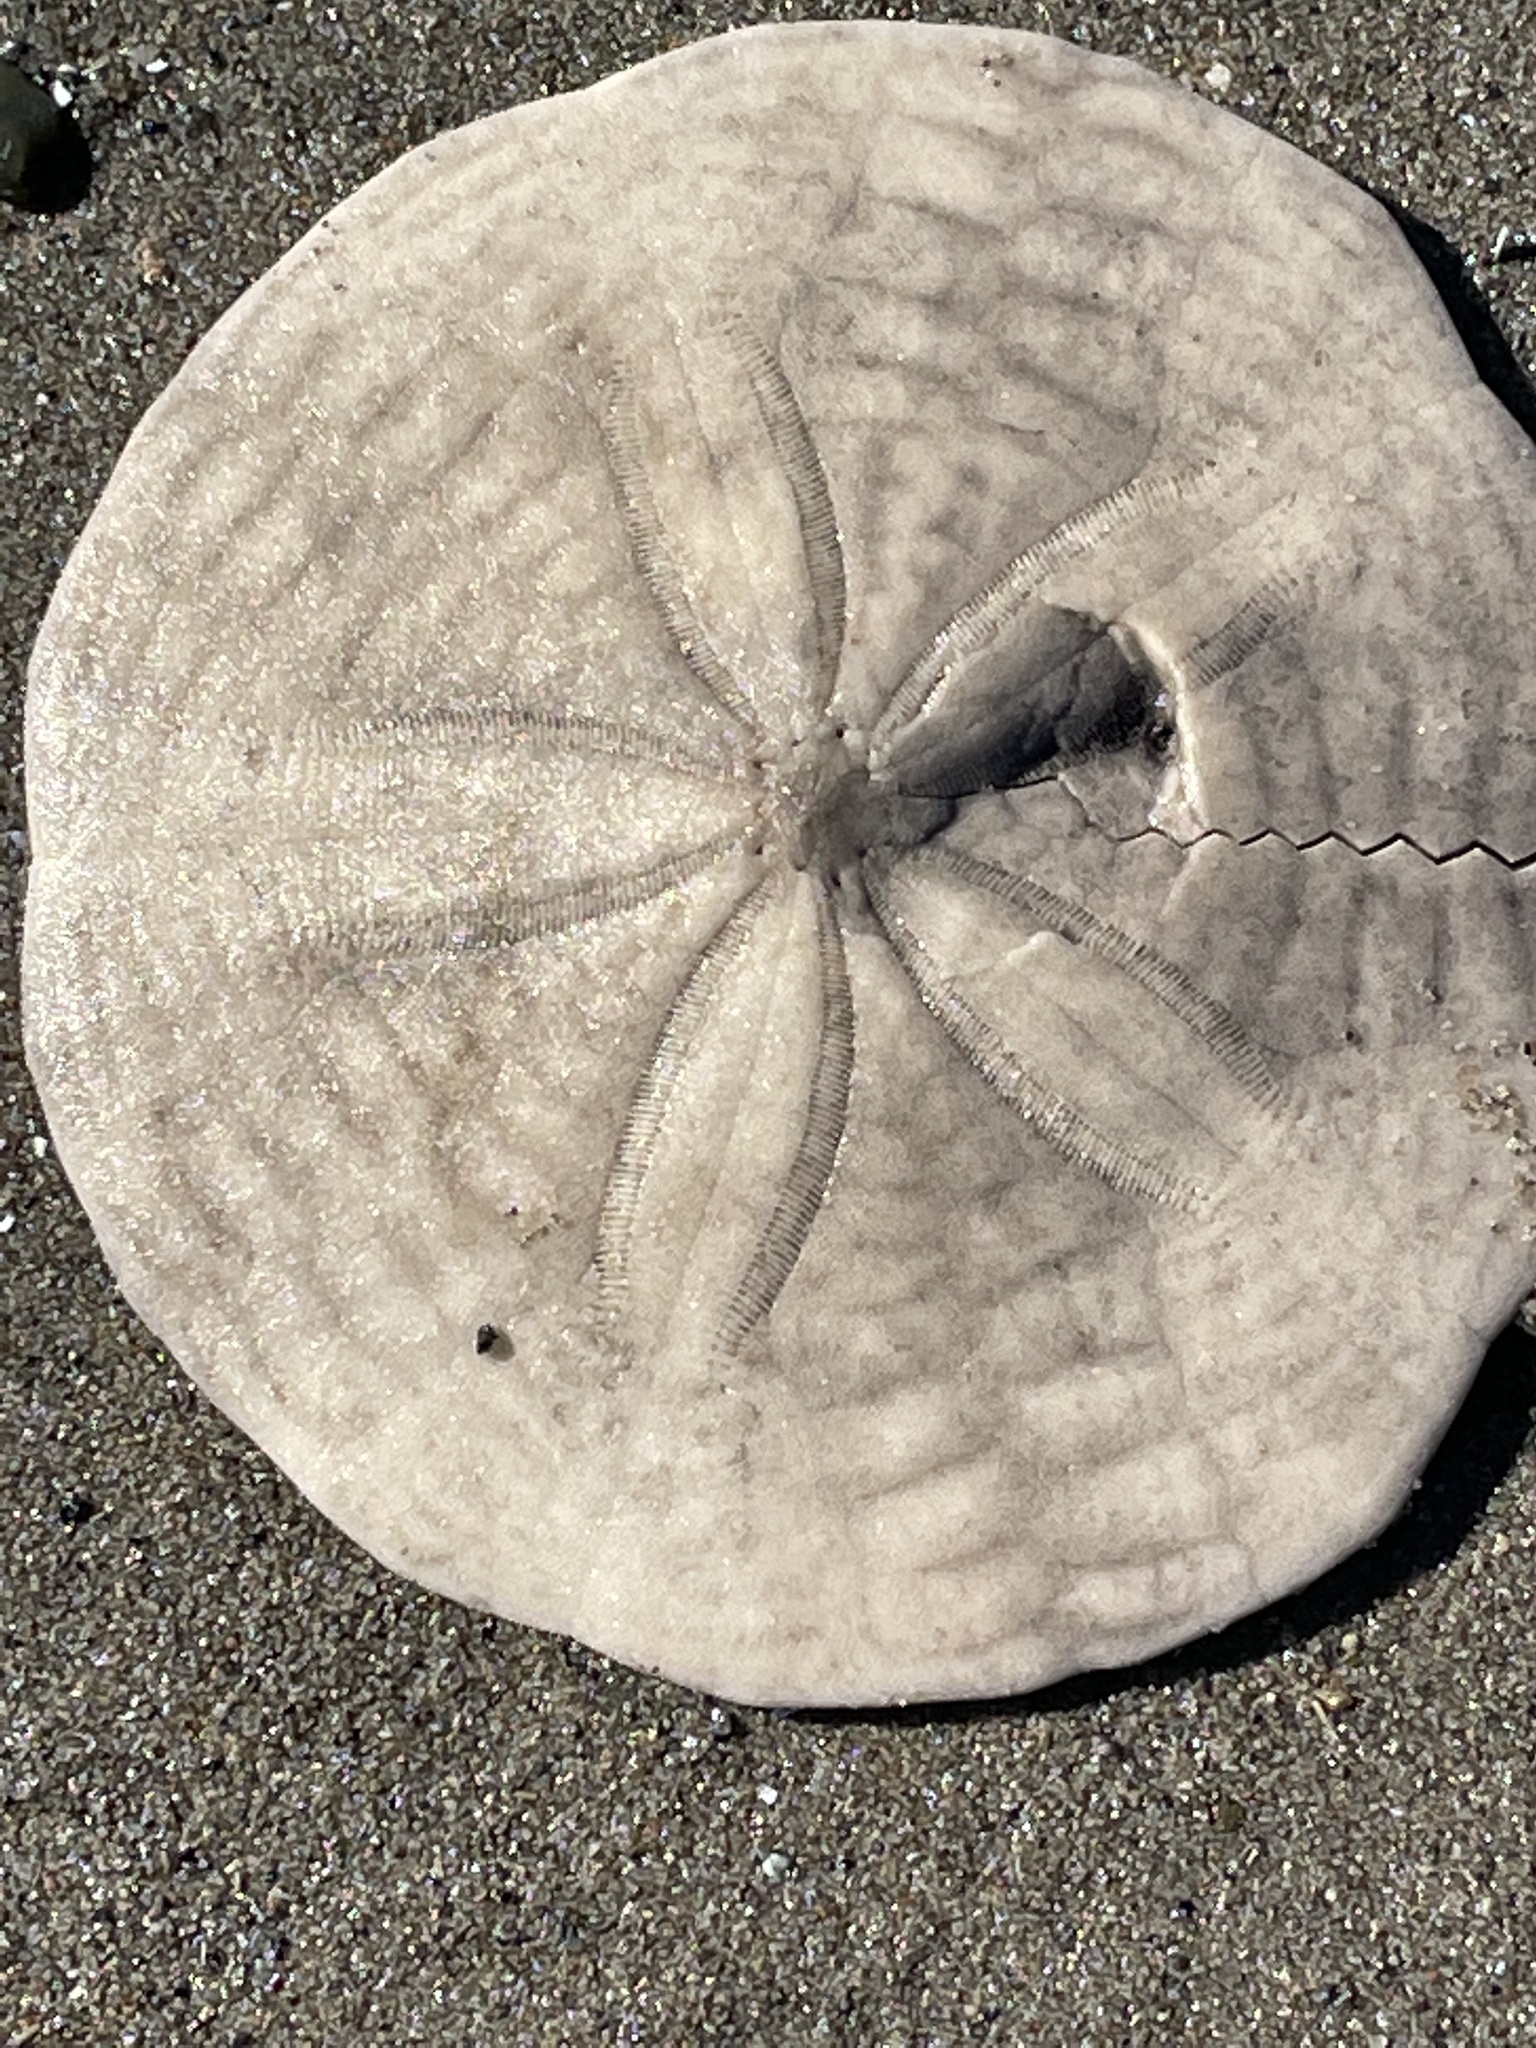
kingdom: Animalia
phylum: Echinodermata
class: Echinoidea
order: Echinolampadacea
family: Echinarachniidae
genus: Echinarachnius
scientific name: Echinarachnius parma
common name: Common sand dollar
